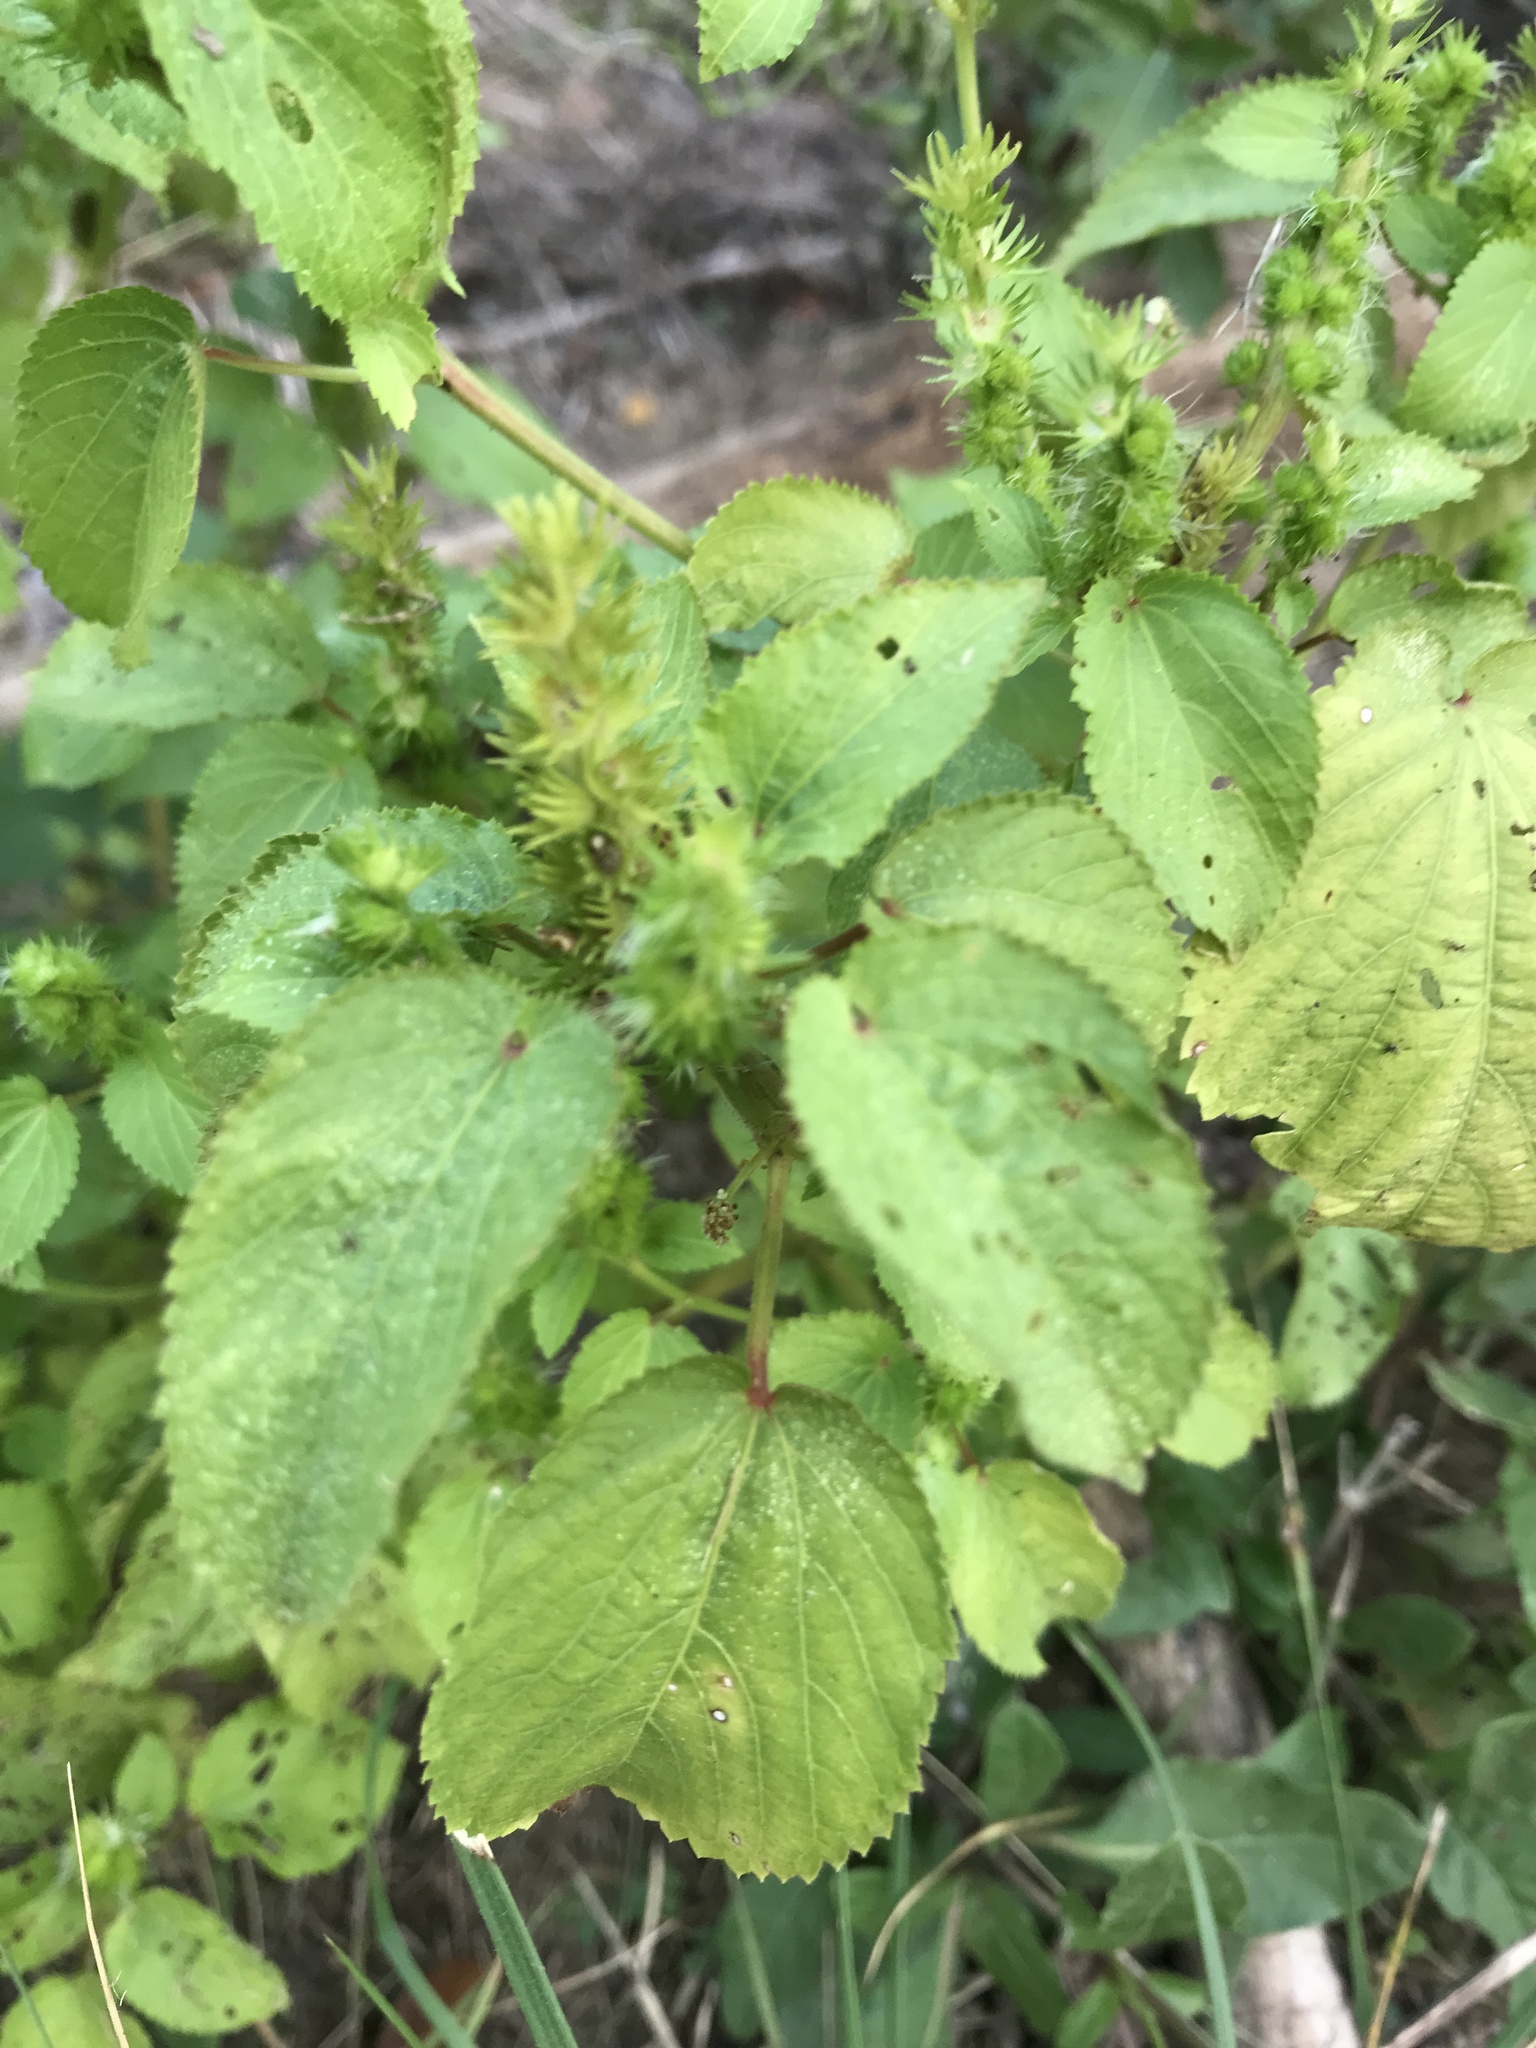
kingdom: Plantae
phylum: Tracheophyta
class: Magnoliopsida
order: Malpighiales
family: Euphorbiaceae
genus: Acalypha
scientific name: Acalypha ostryifolia
